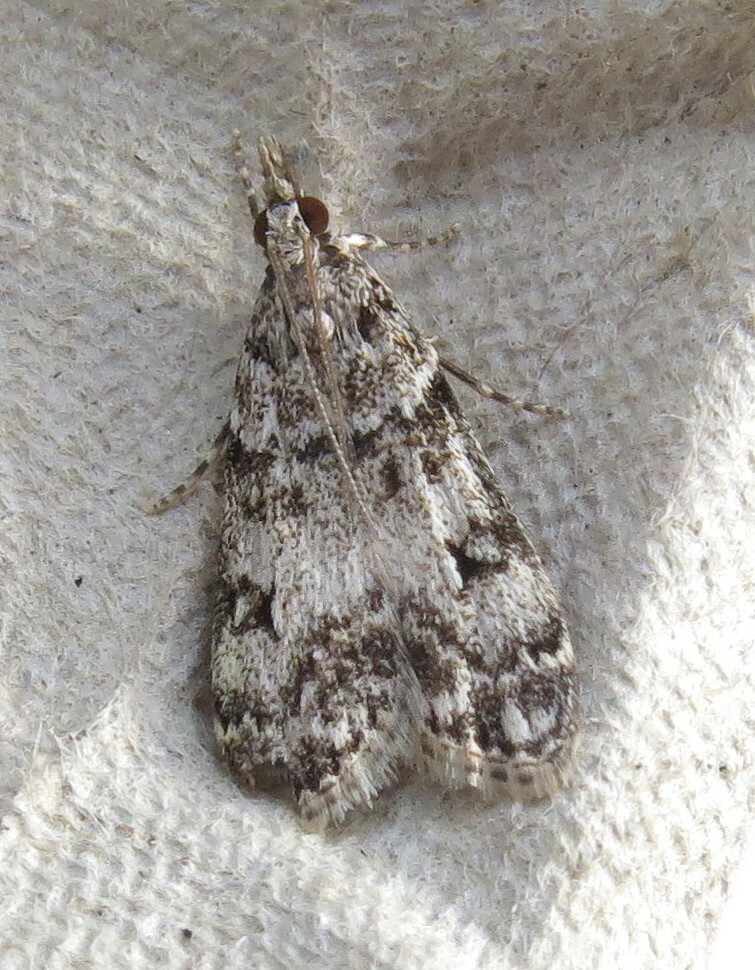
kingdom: Animalia
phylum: Arthropoda
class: Insecta
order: Lepidoptera
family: Crambidae
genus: Eudonia
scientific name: Eudonia lacustrata
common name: Little grey
